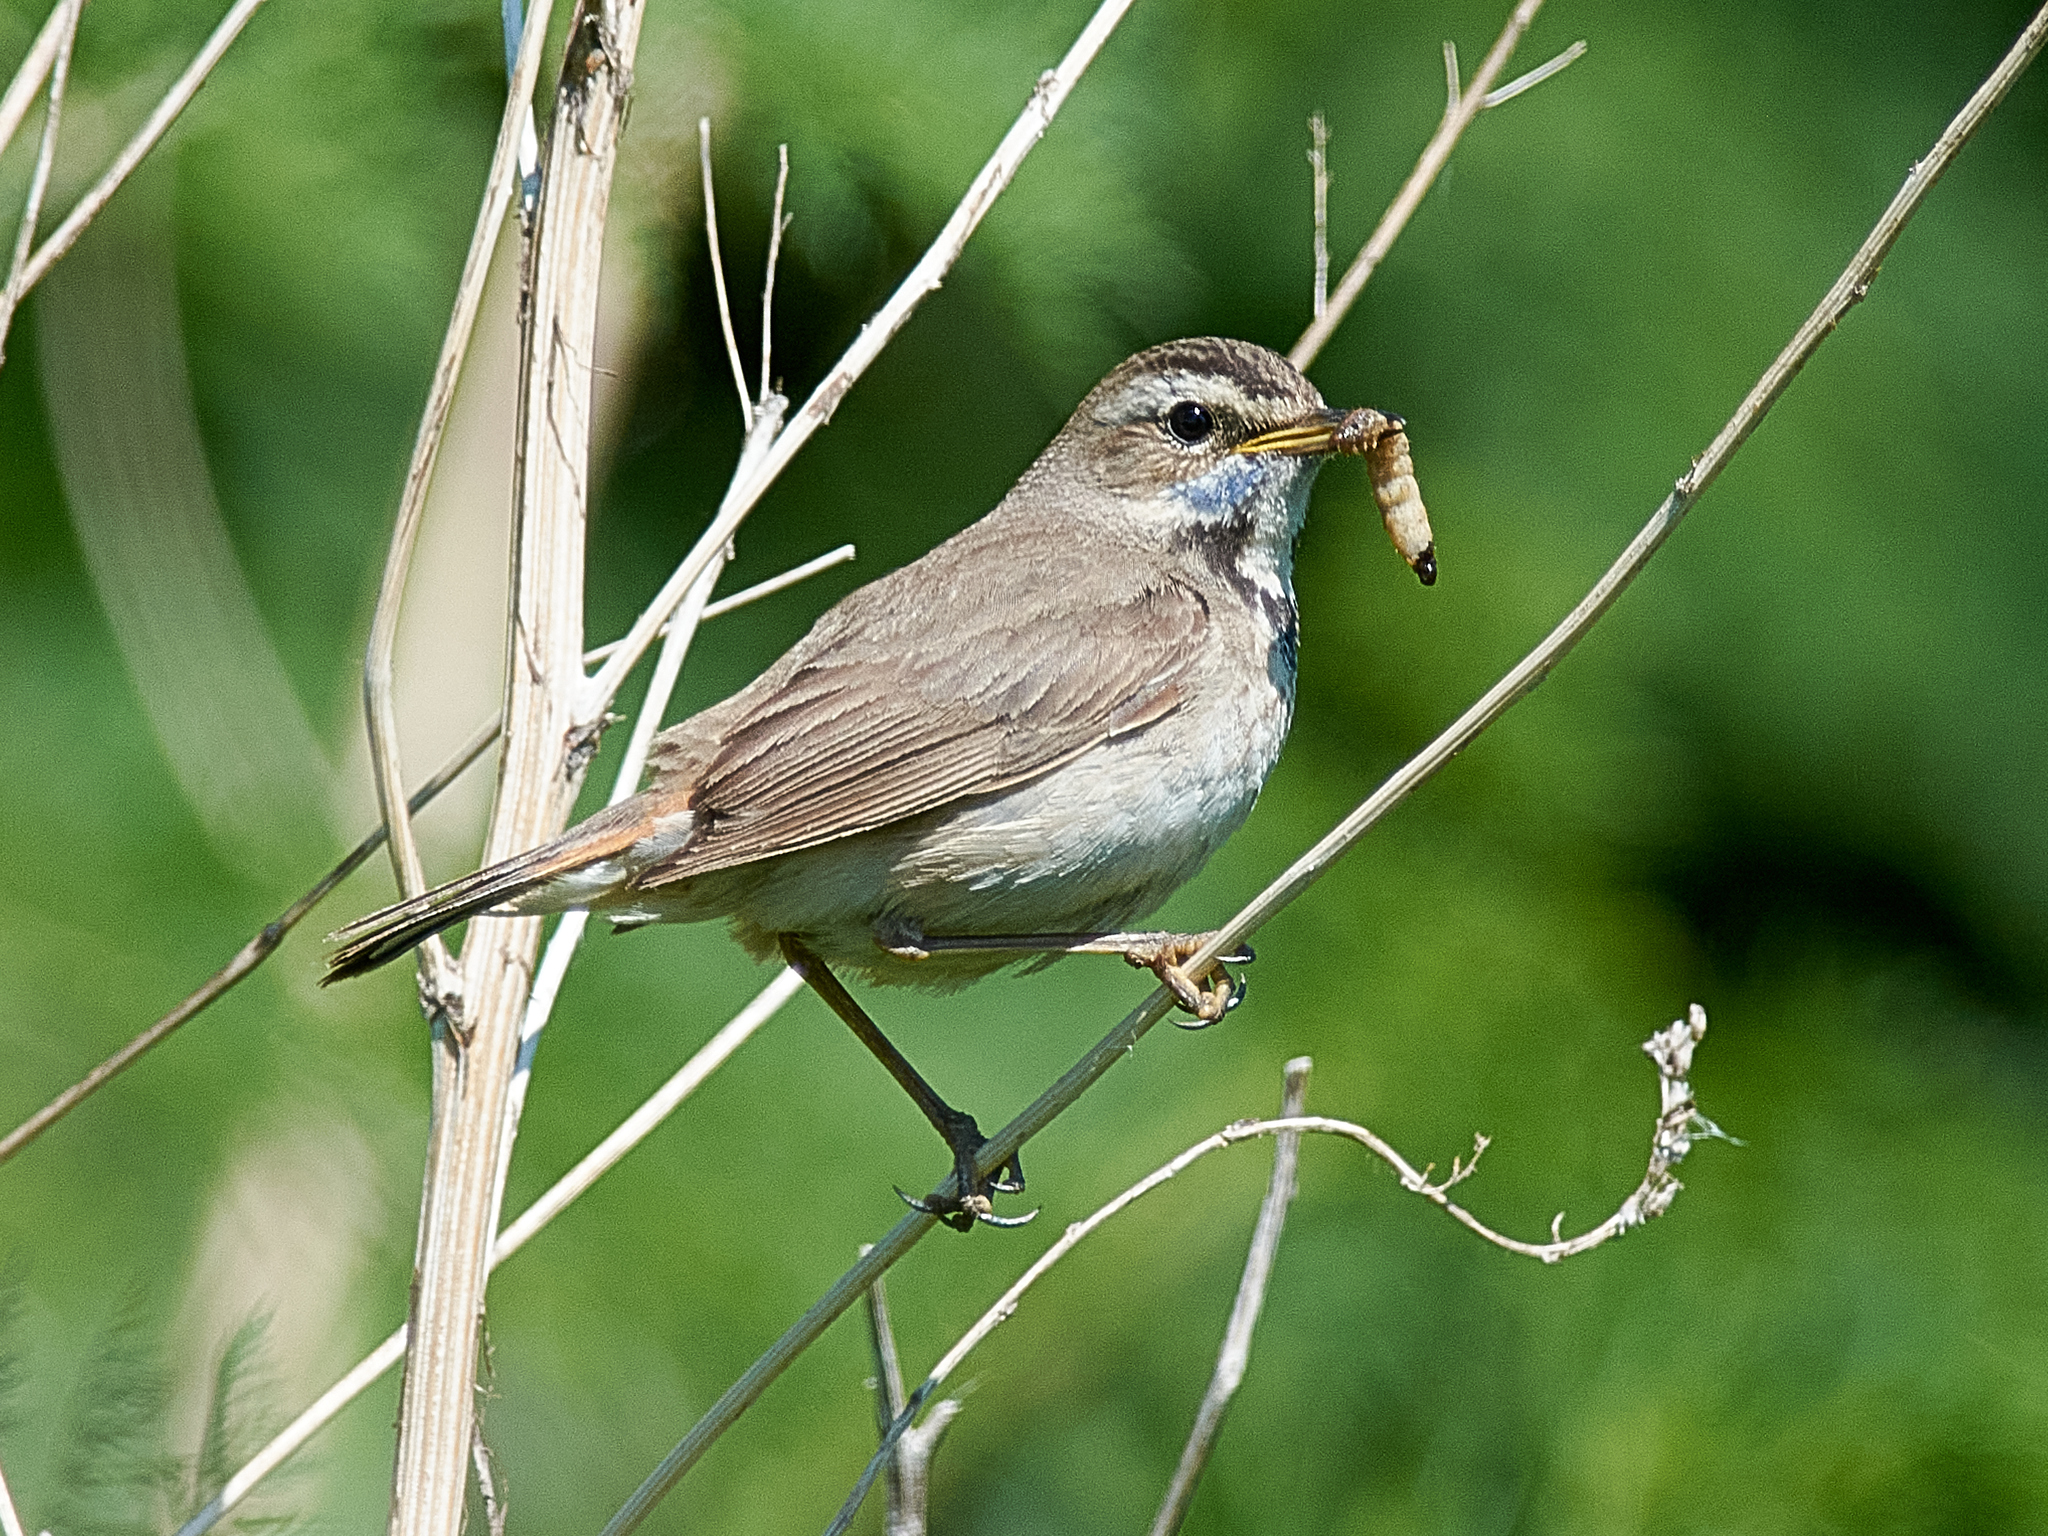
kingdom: Animalia
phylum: Chordata
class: Aves
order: Passeriformes
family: Muscicapidae
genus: Luscinia
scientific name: Luscinia svecica
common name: Bluethroat
